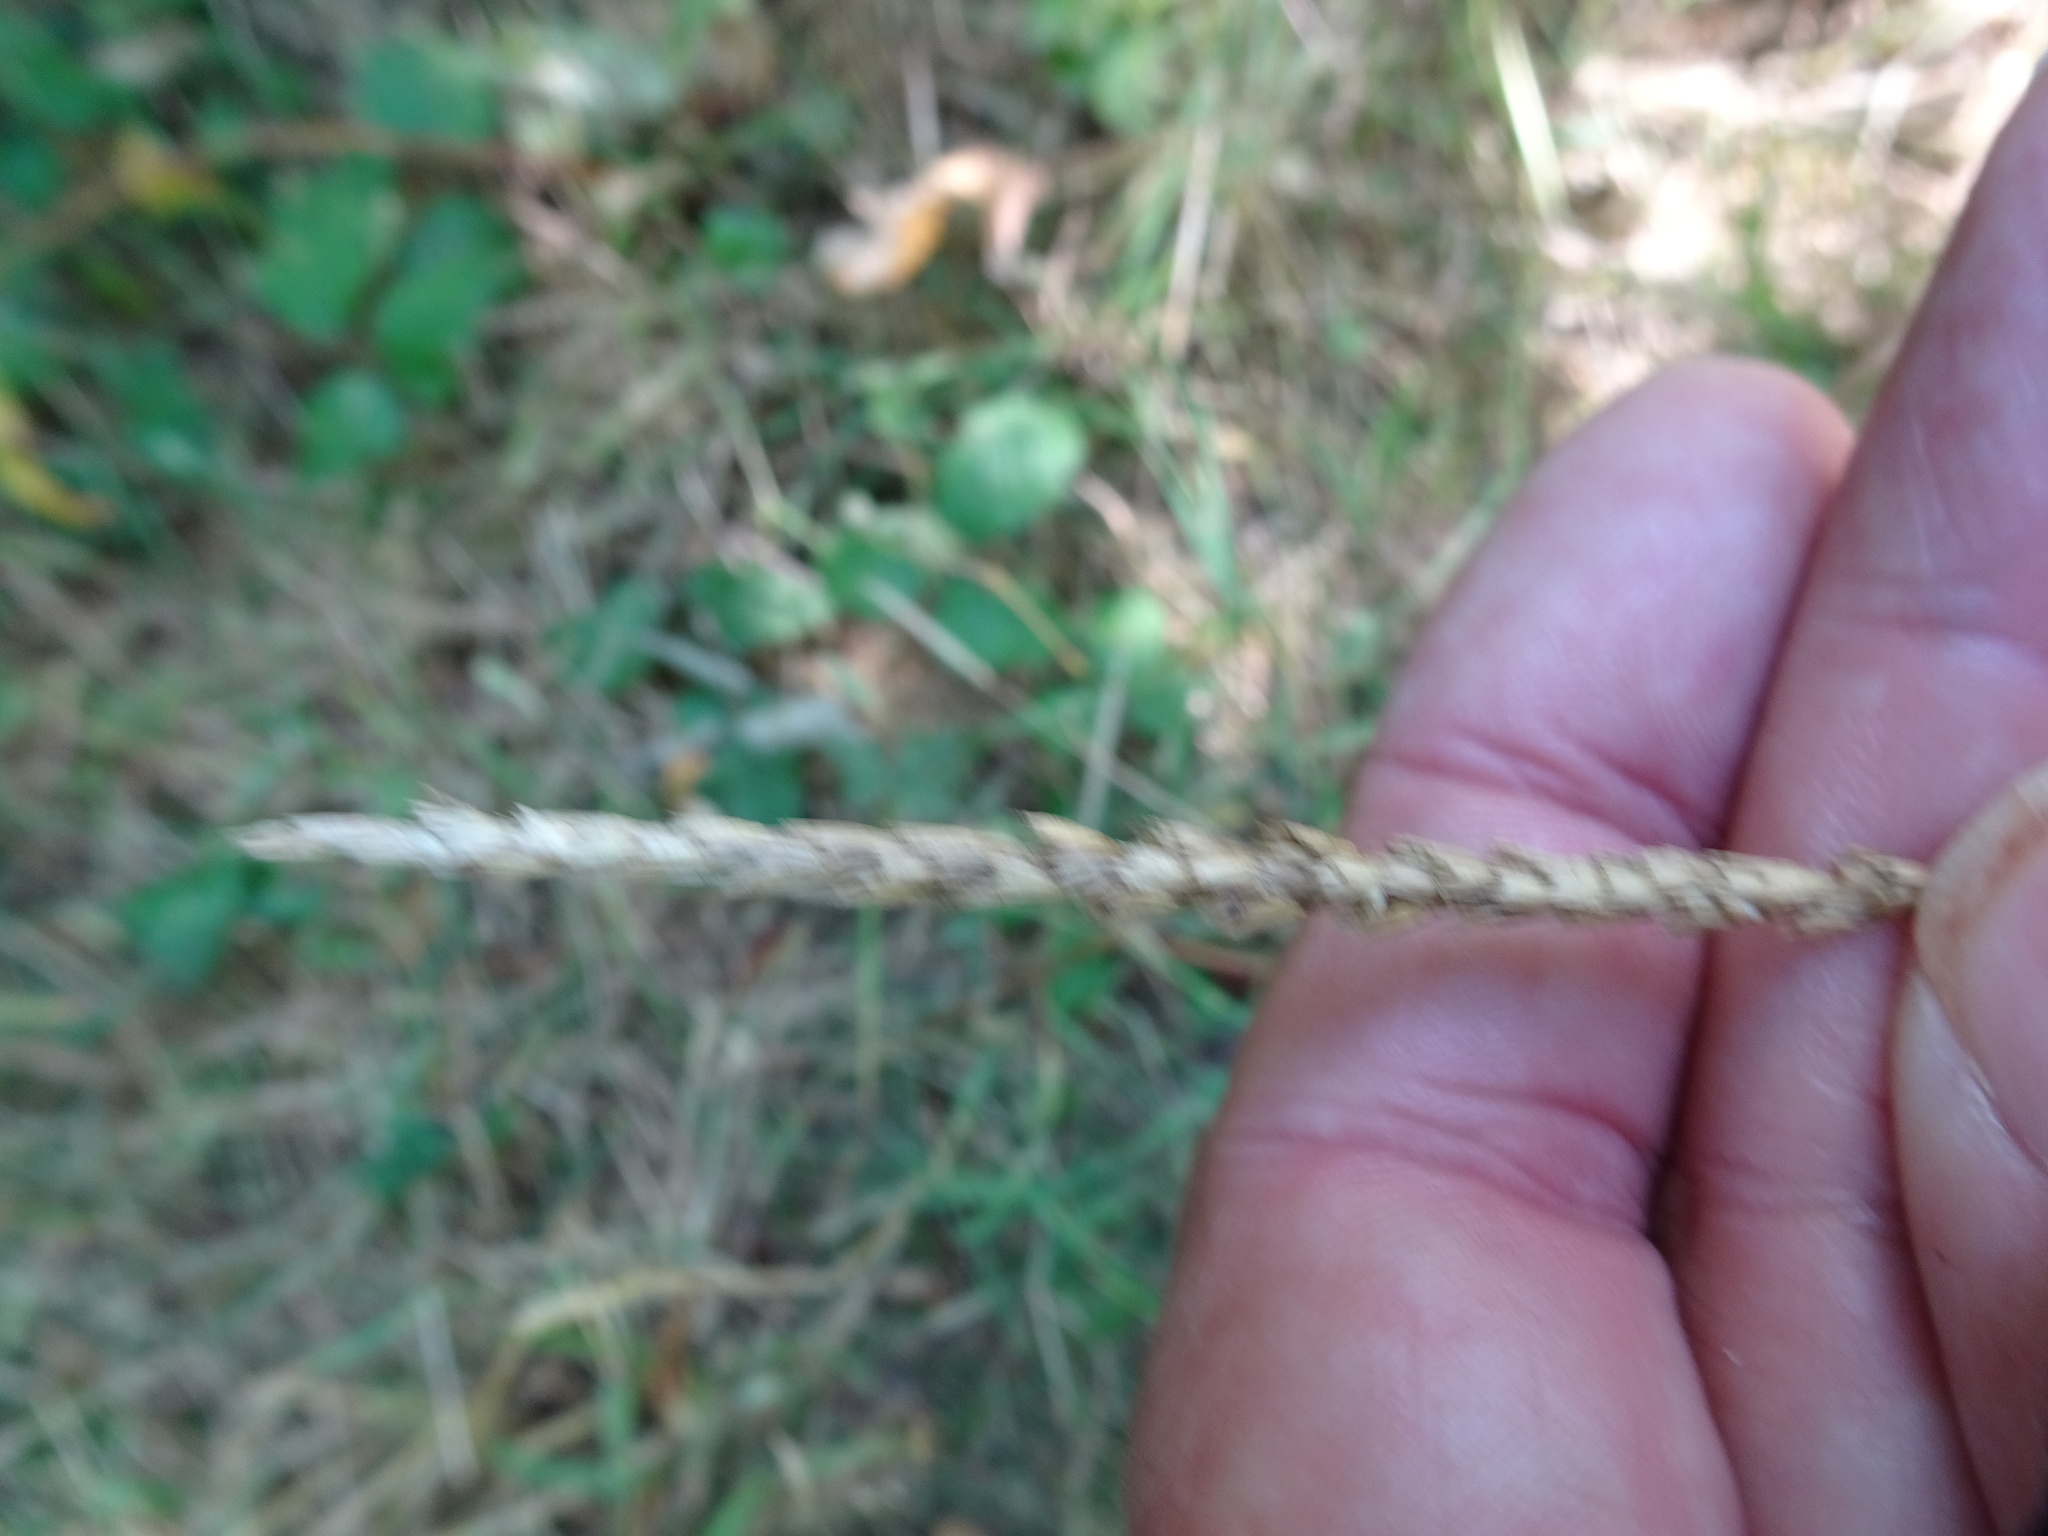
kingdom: Plantae
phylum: Tracheophyta
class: Liliopsida
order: Poales
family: Poaceae
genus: Cynosurus
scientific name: Cynosurus cristatus
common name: Crested dog's-tail
